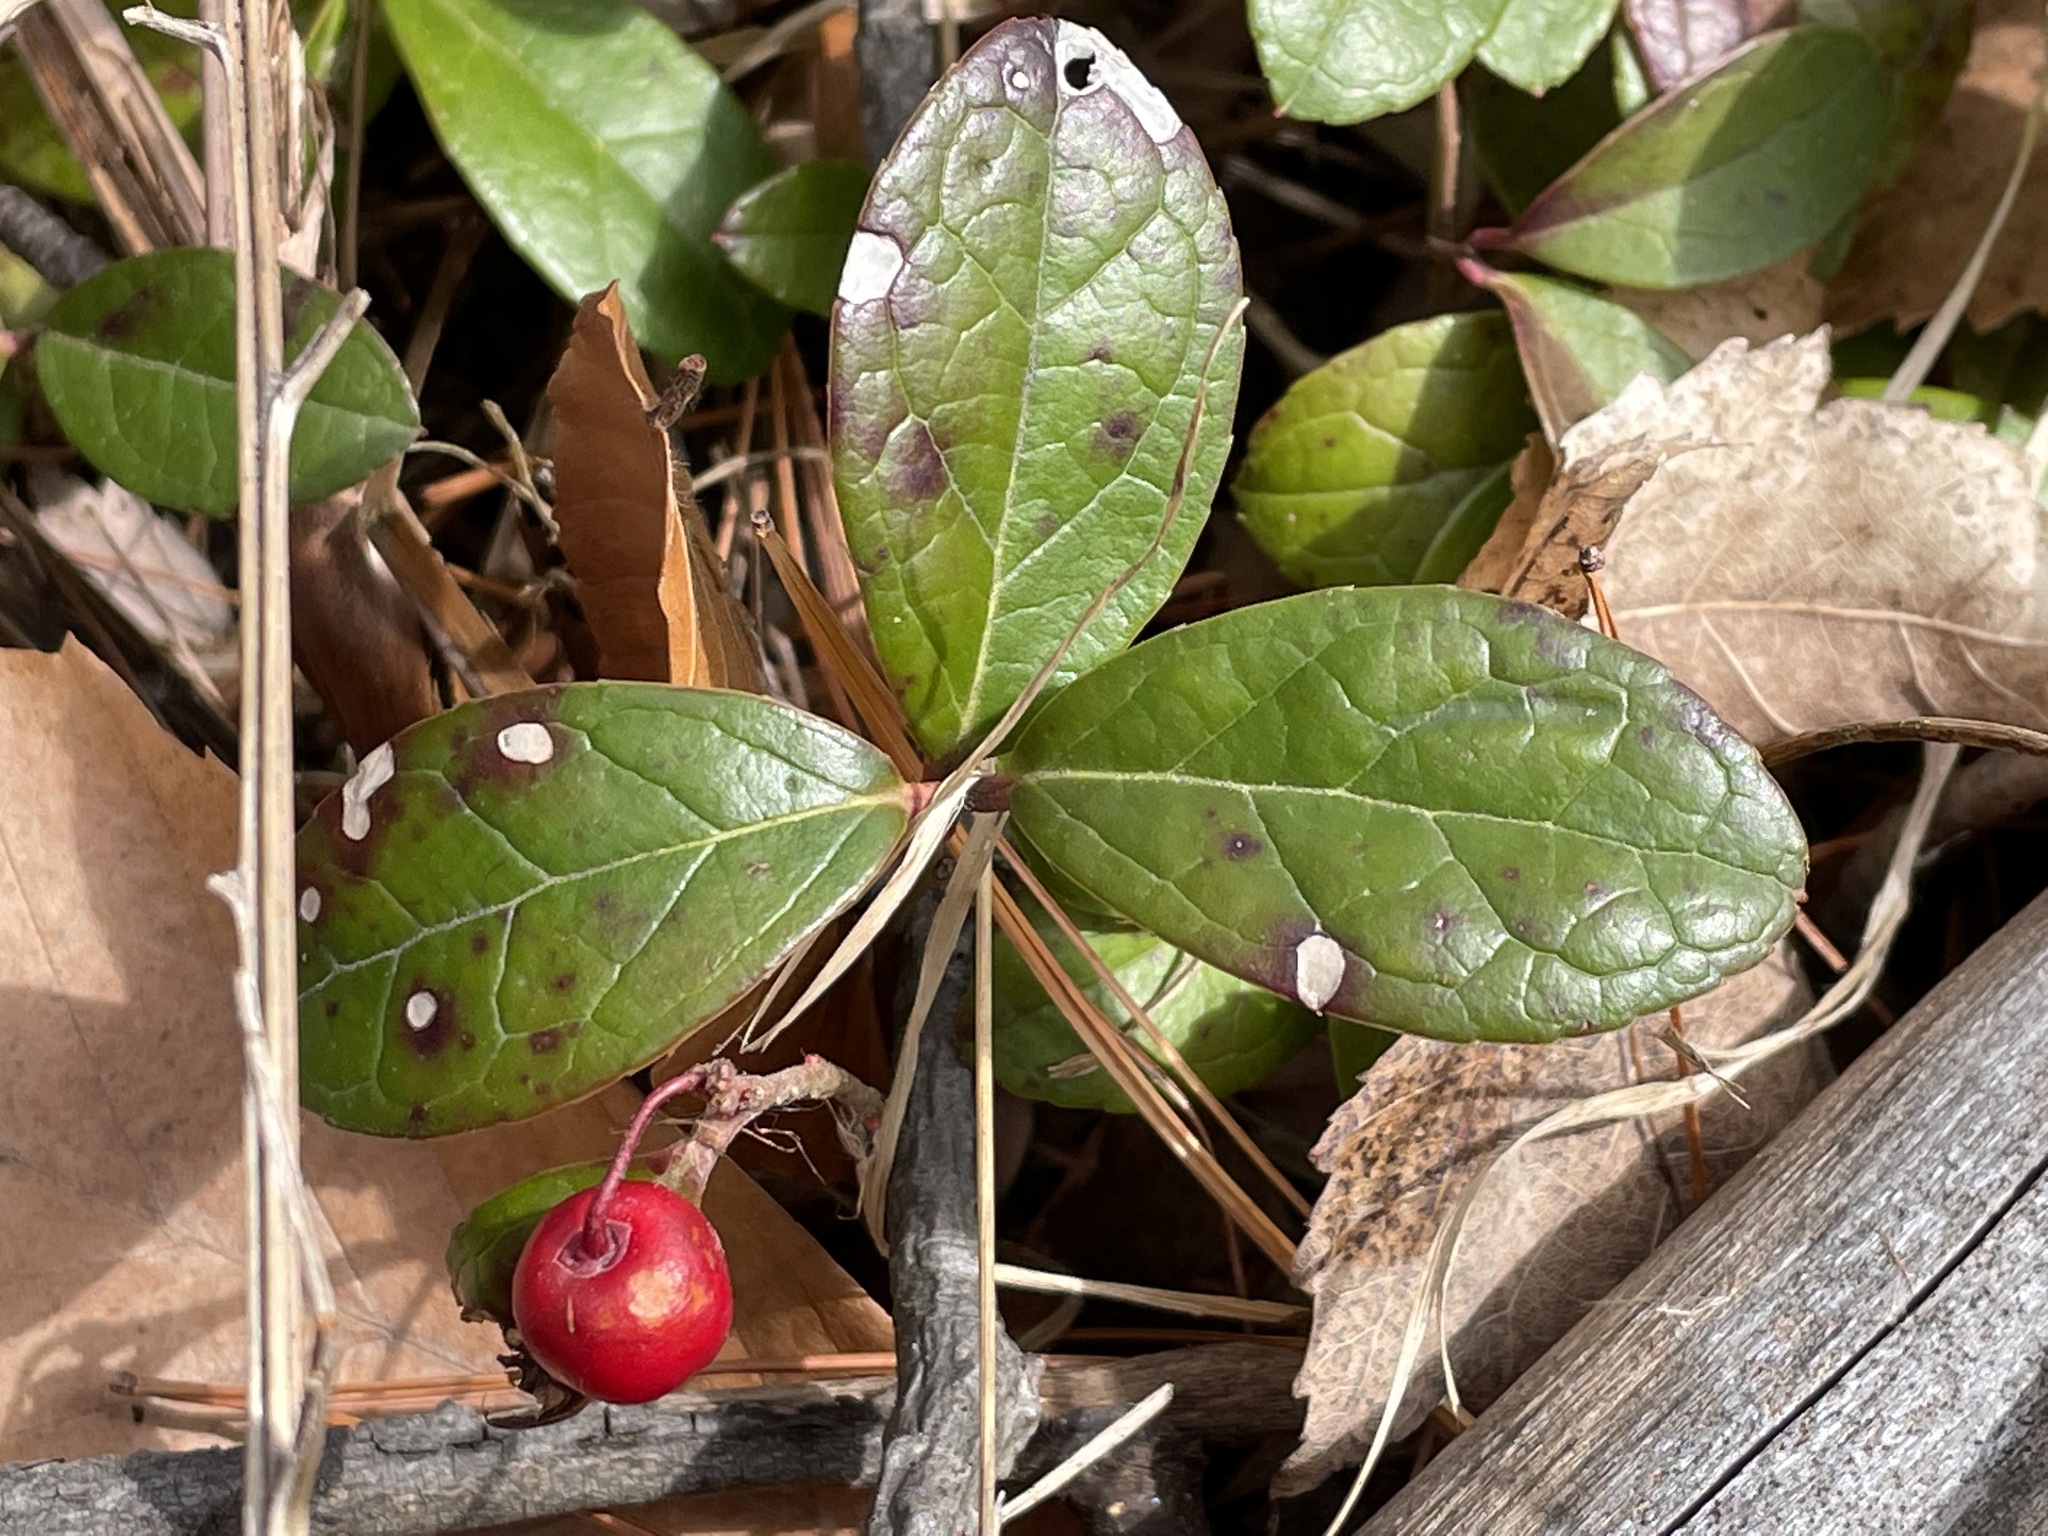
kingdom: Plantae
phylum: Tracheophyta
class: Magnoliopsida
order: Ericales
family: Ericaceae
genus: Gaultheria
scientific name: Gaultheria procumbens
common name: Checkerberry
